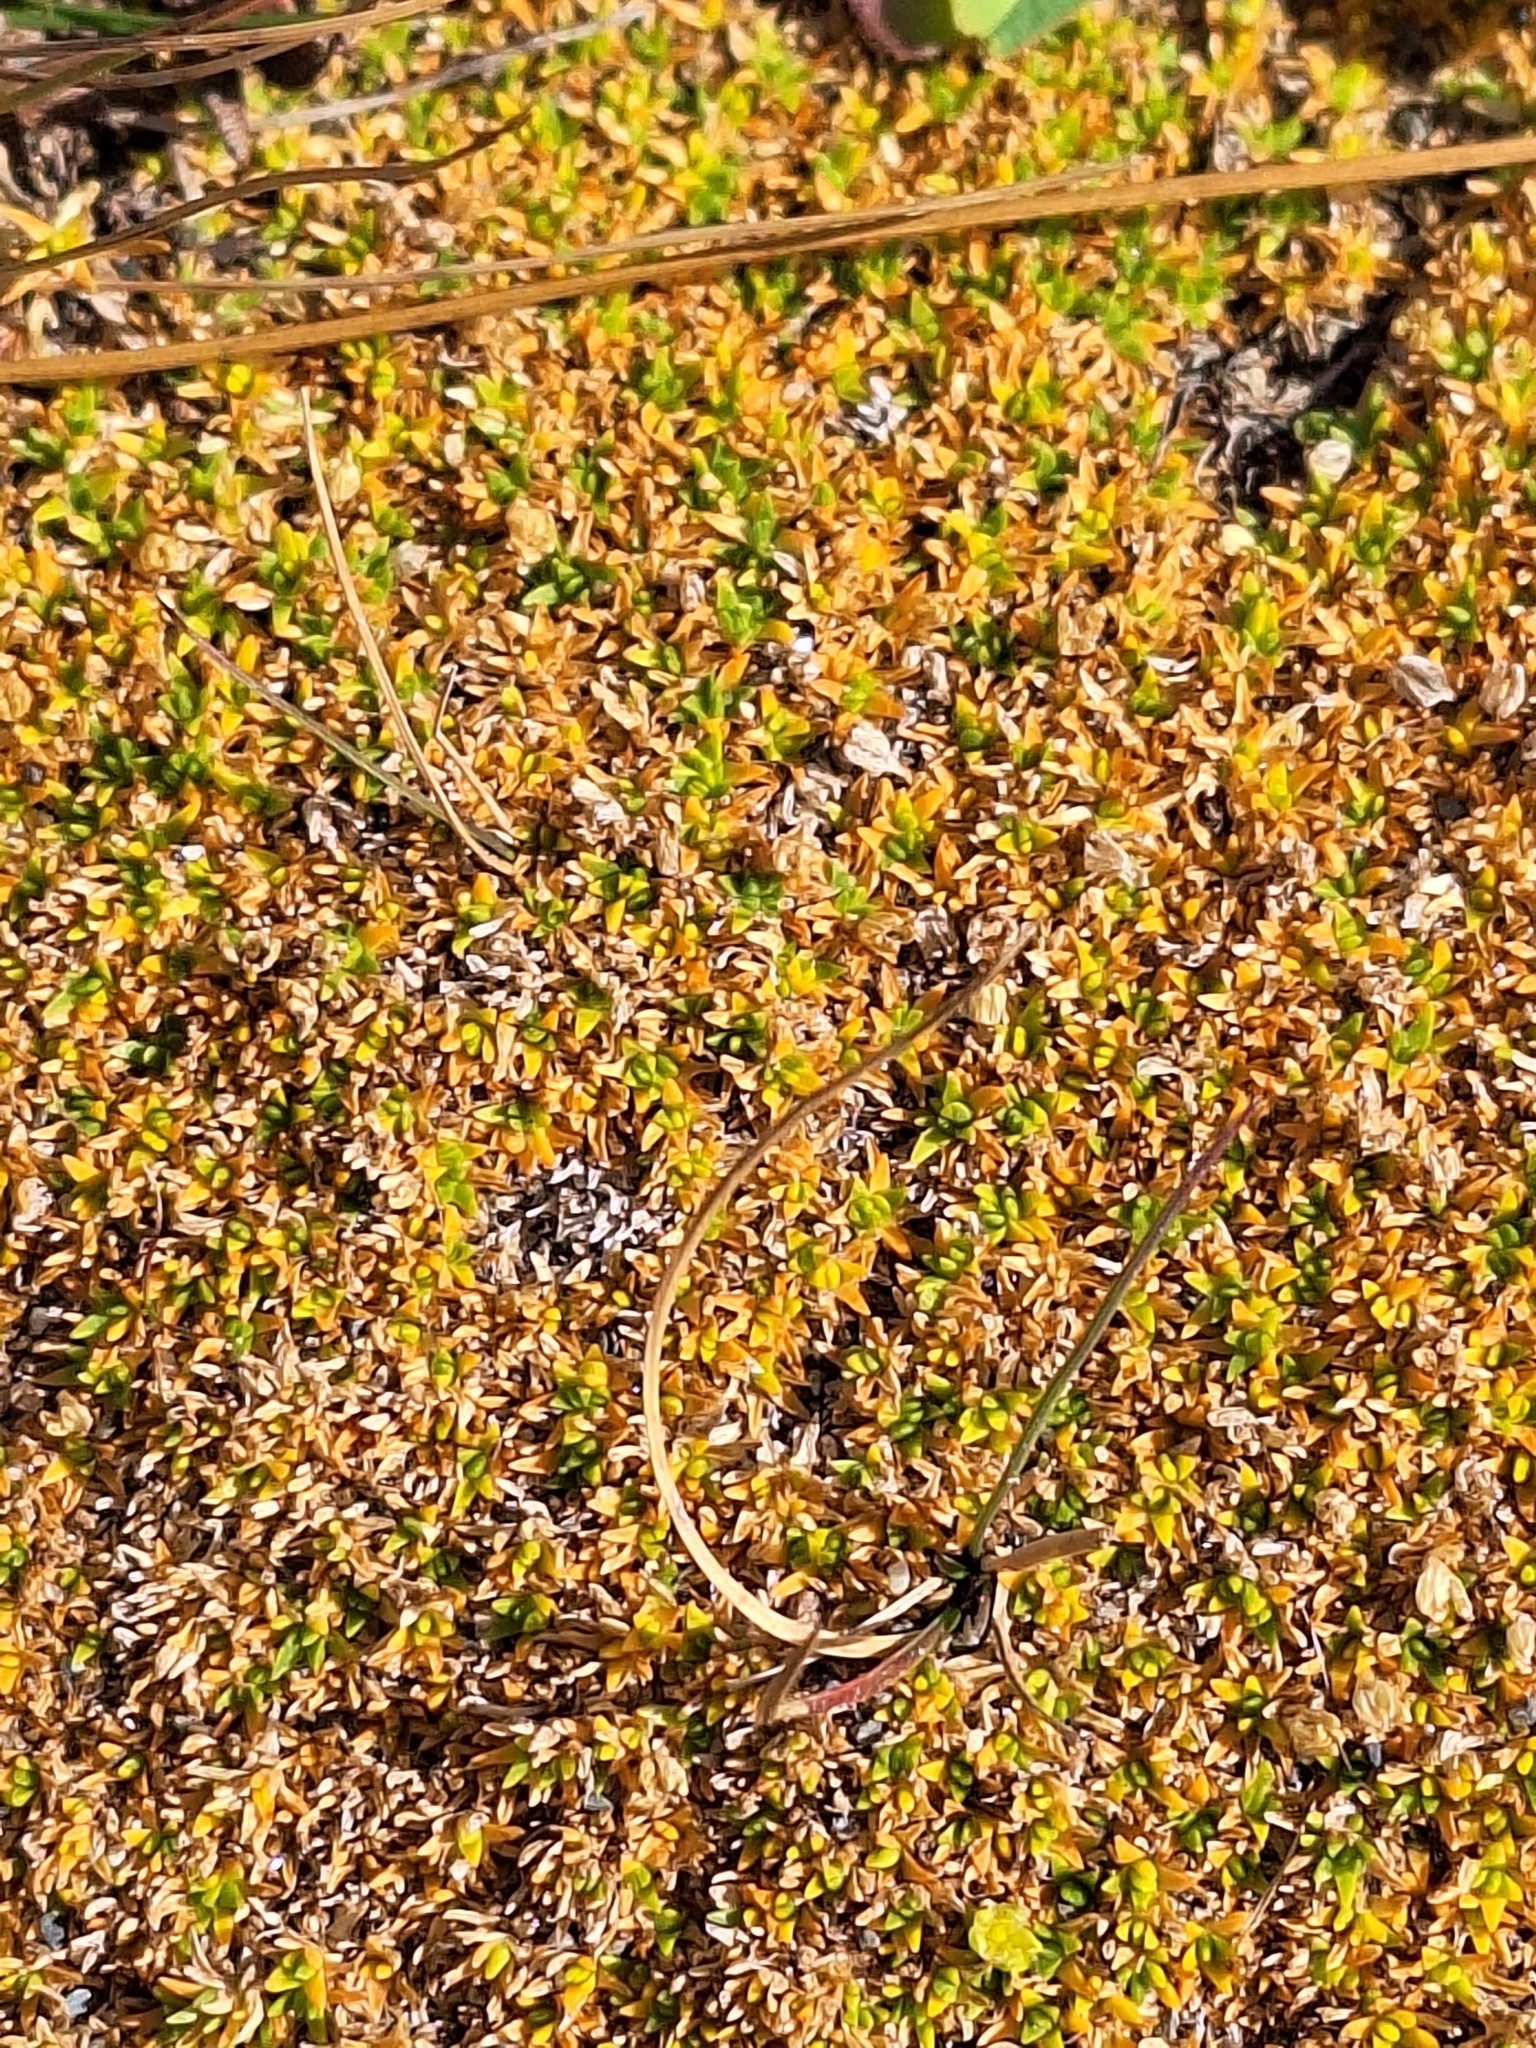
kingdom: Plantae
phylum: Tracheophyta
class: Magnoliopsida
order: Caryophyllales
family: Caryophyllaceae
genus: Cherleria
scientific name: Cherleria sedoides
